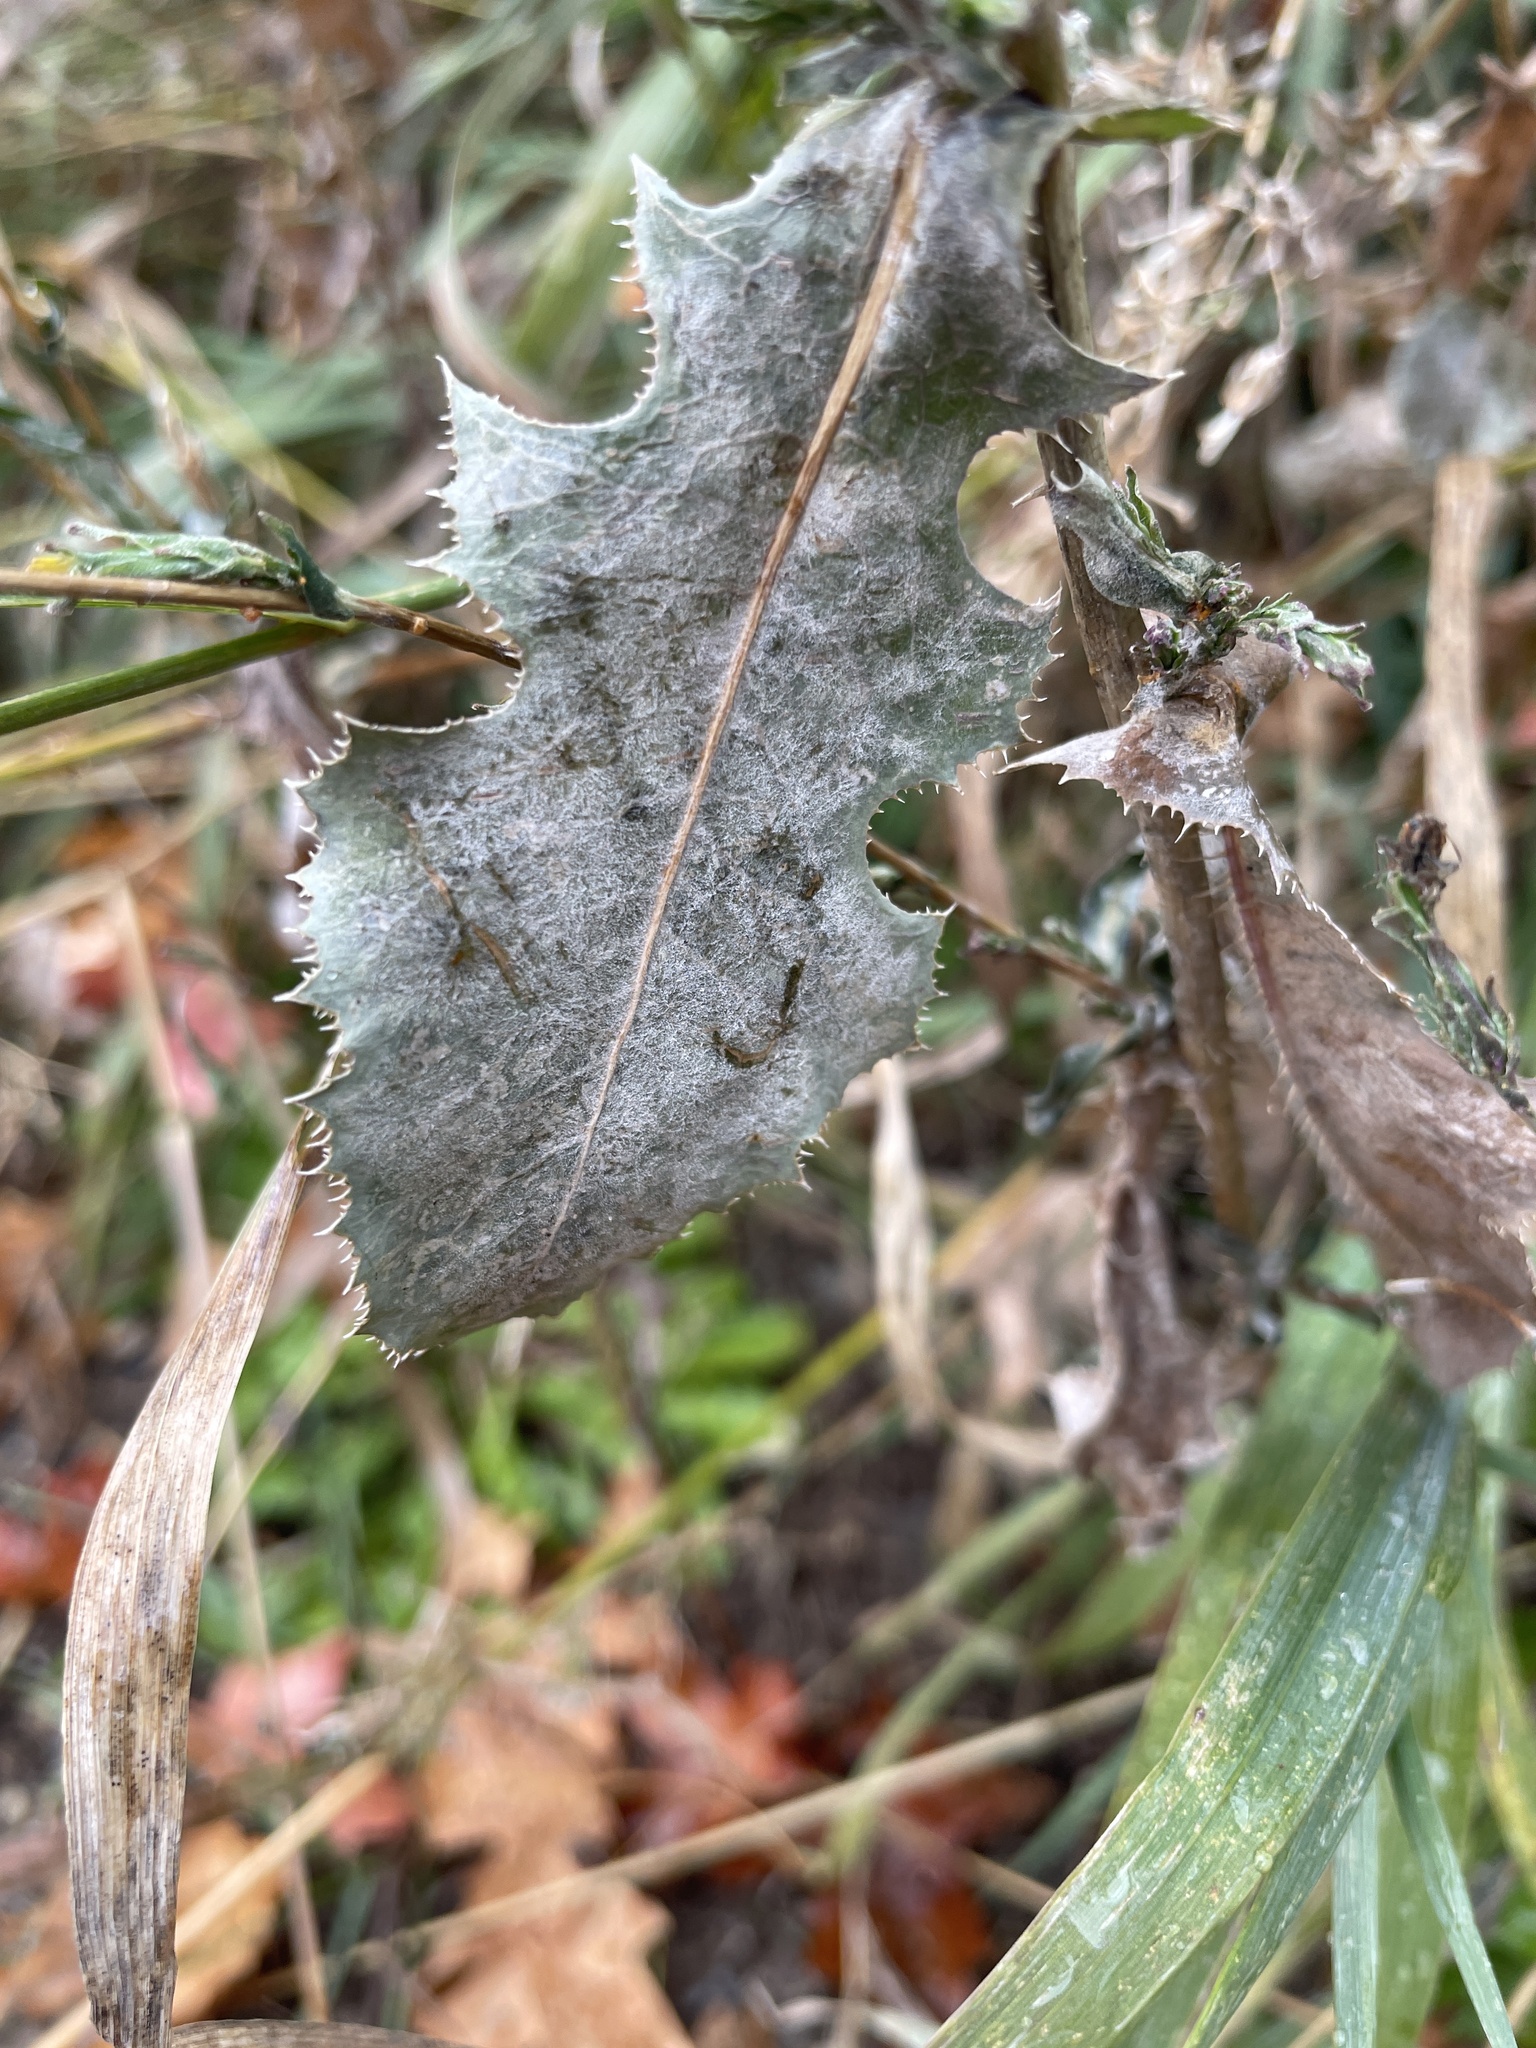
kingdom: Fungi
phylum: Ascomycota
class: Leotiomycetes
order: Helotiales
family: Erysiphaceae
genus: Golovinomyces
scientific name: Golovinomyces bolayi
